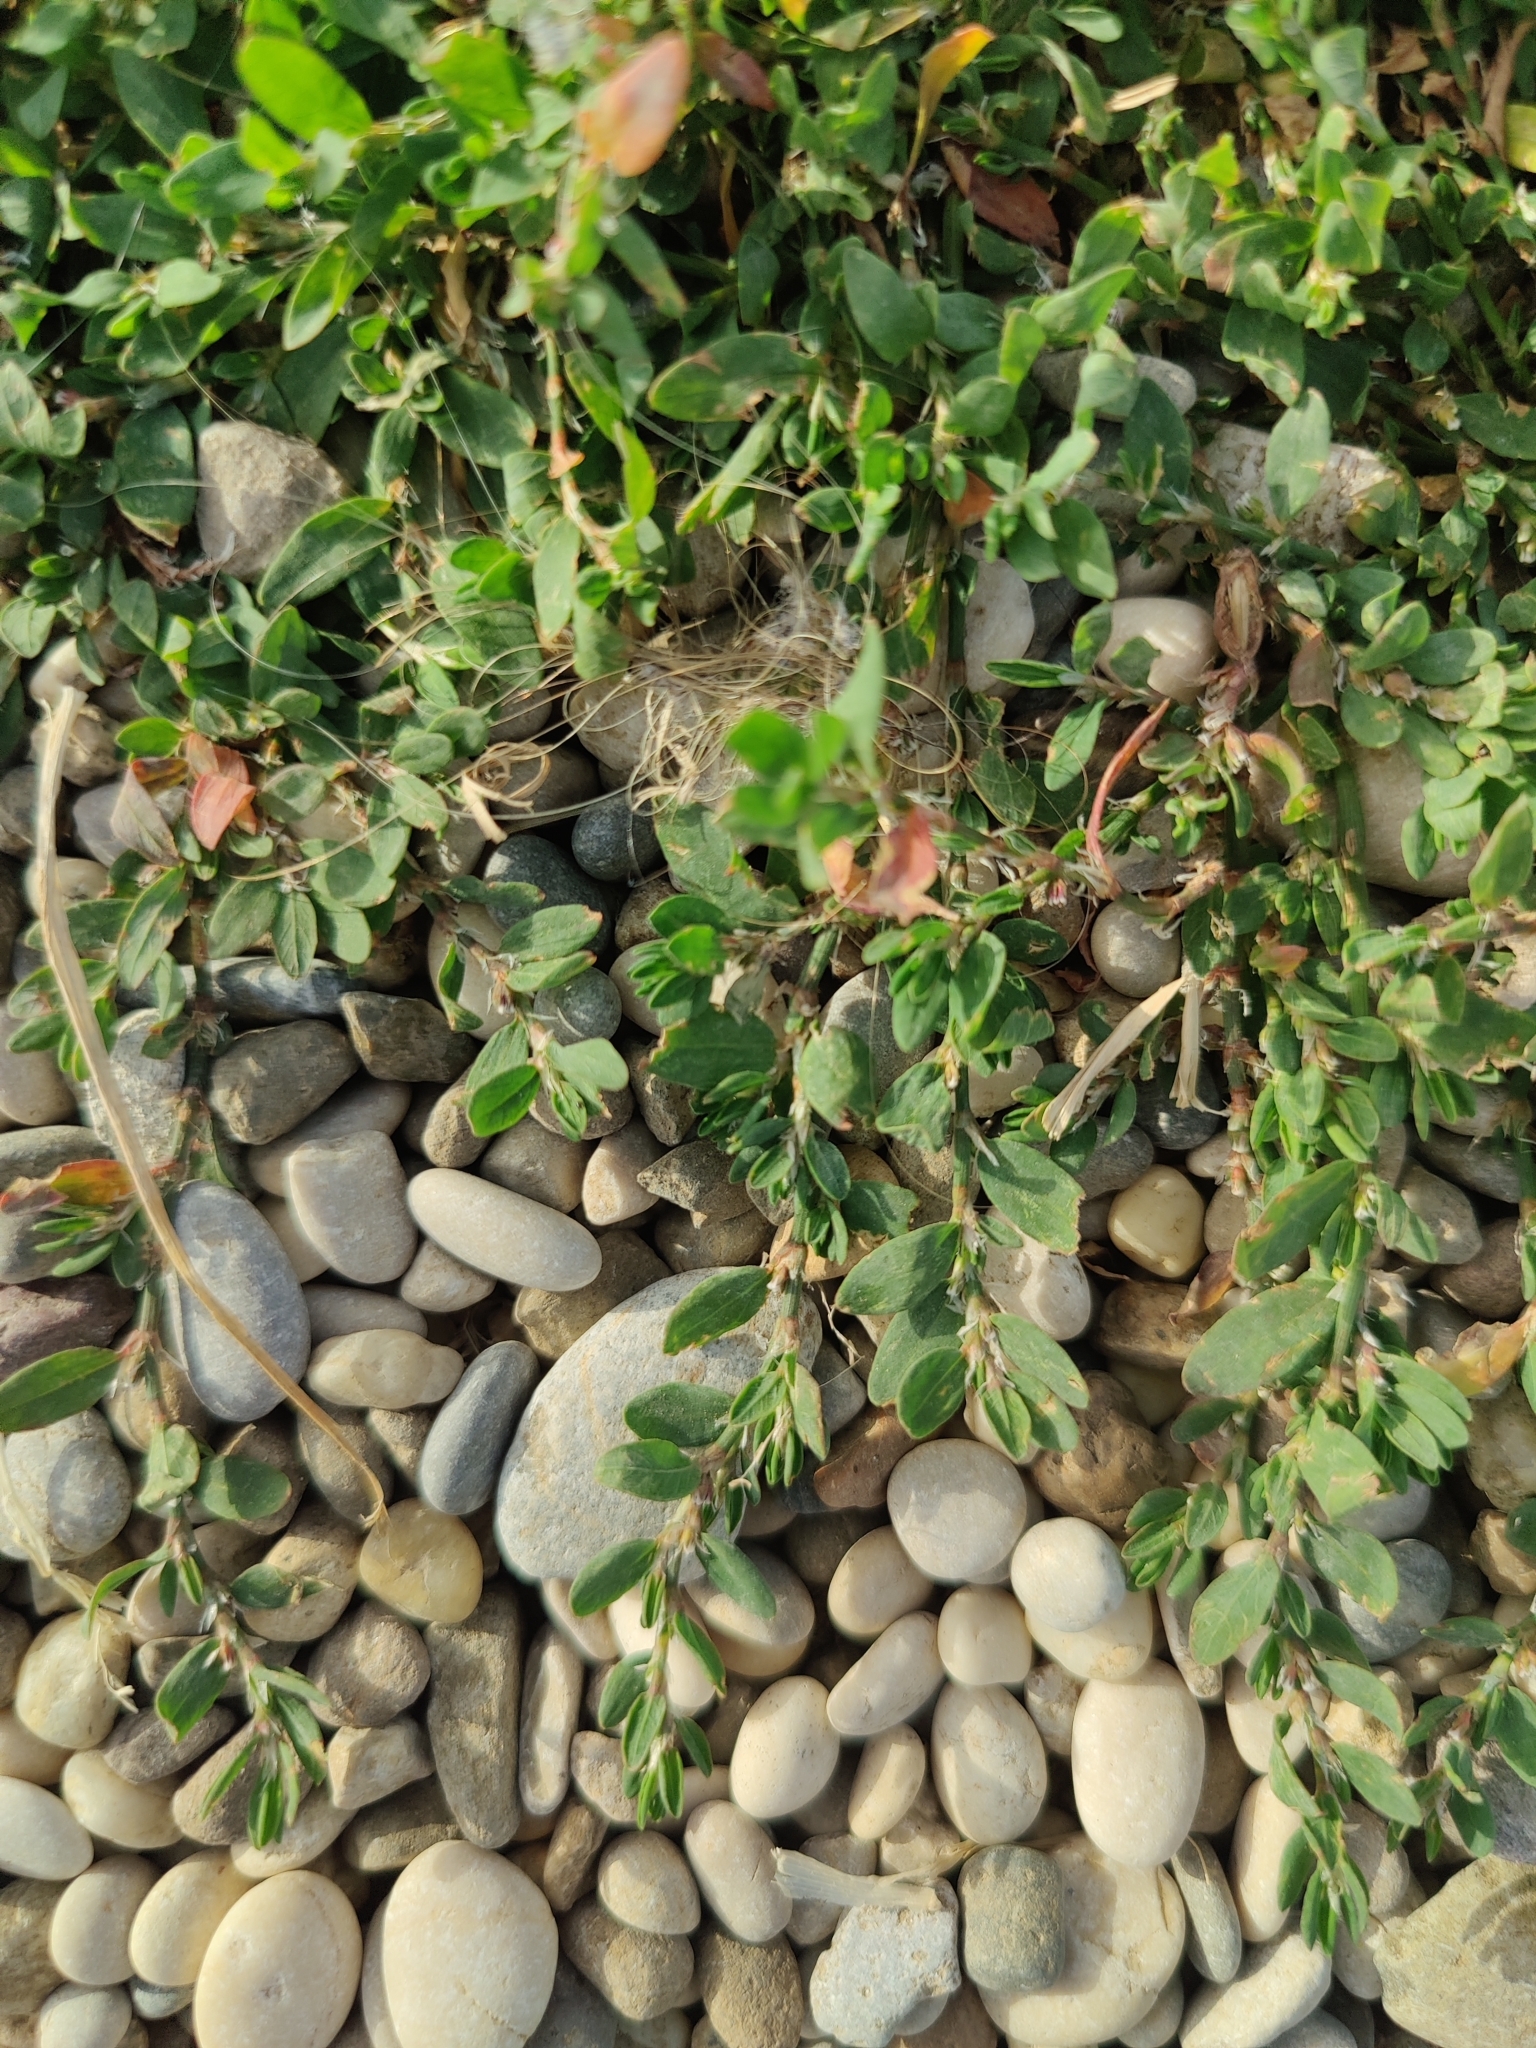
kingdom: Plantae
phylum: Tracheophyta
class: Magnoliopsida
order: Caryophyllales
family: Polygonaceae
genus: Polygonum
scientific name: Polygonum arenastrum
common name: Equal-leaved knotgrass
